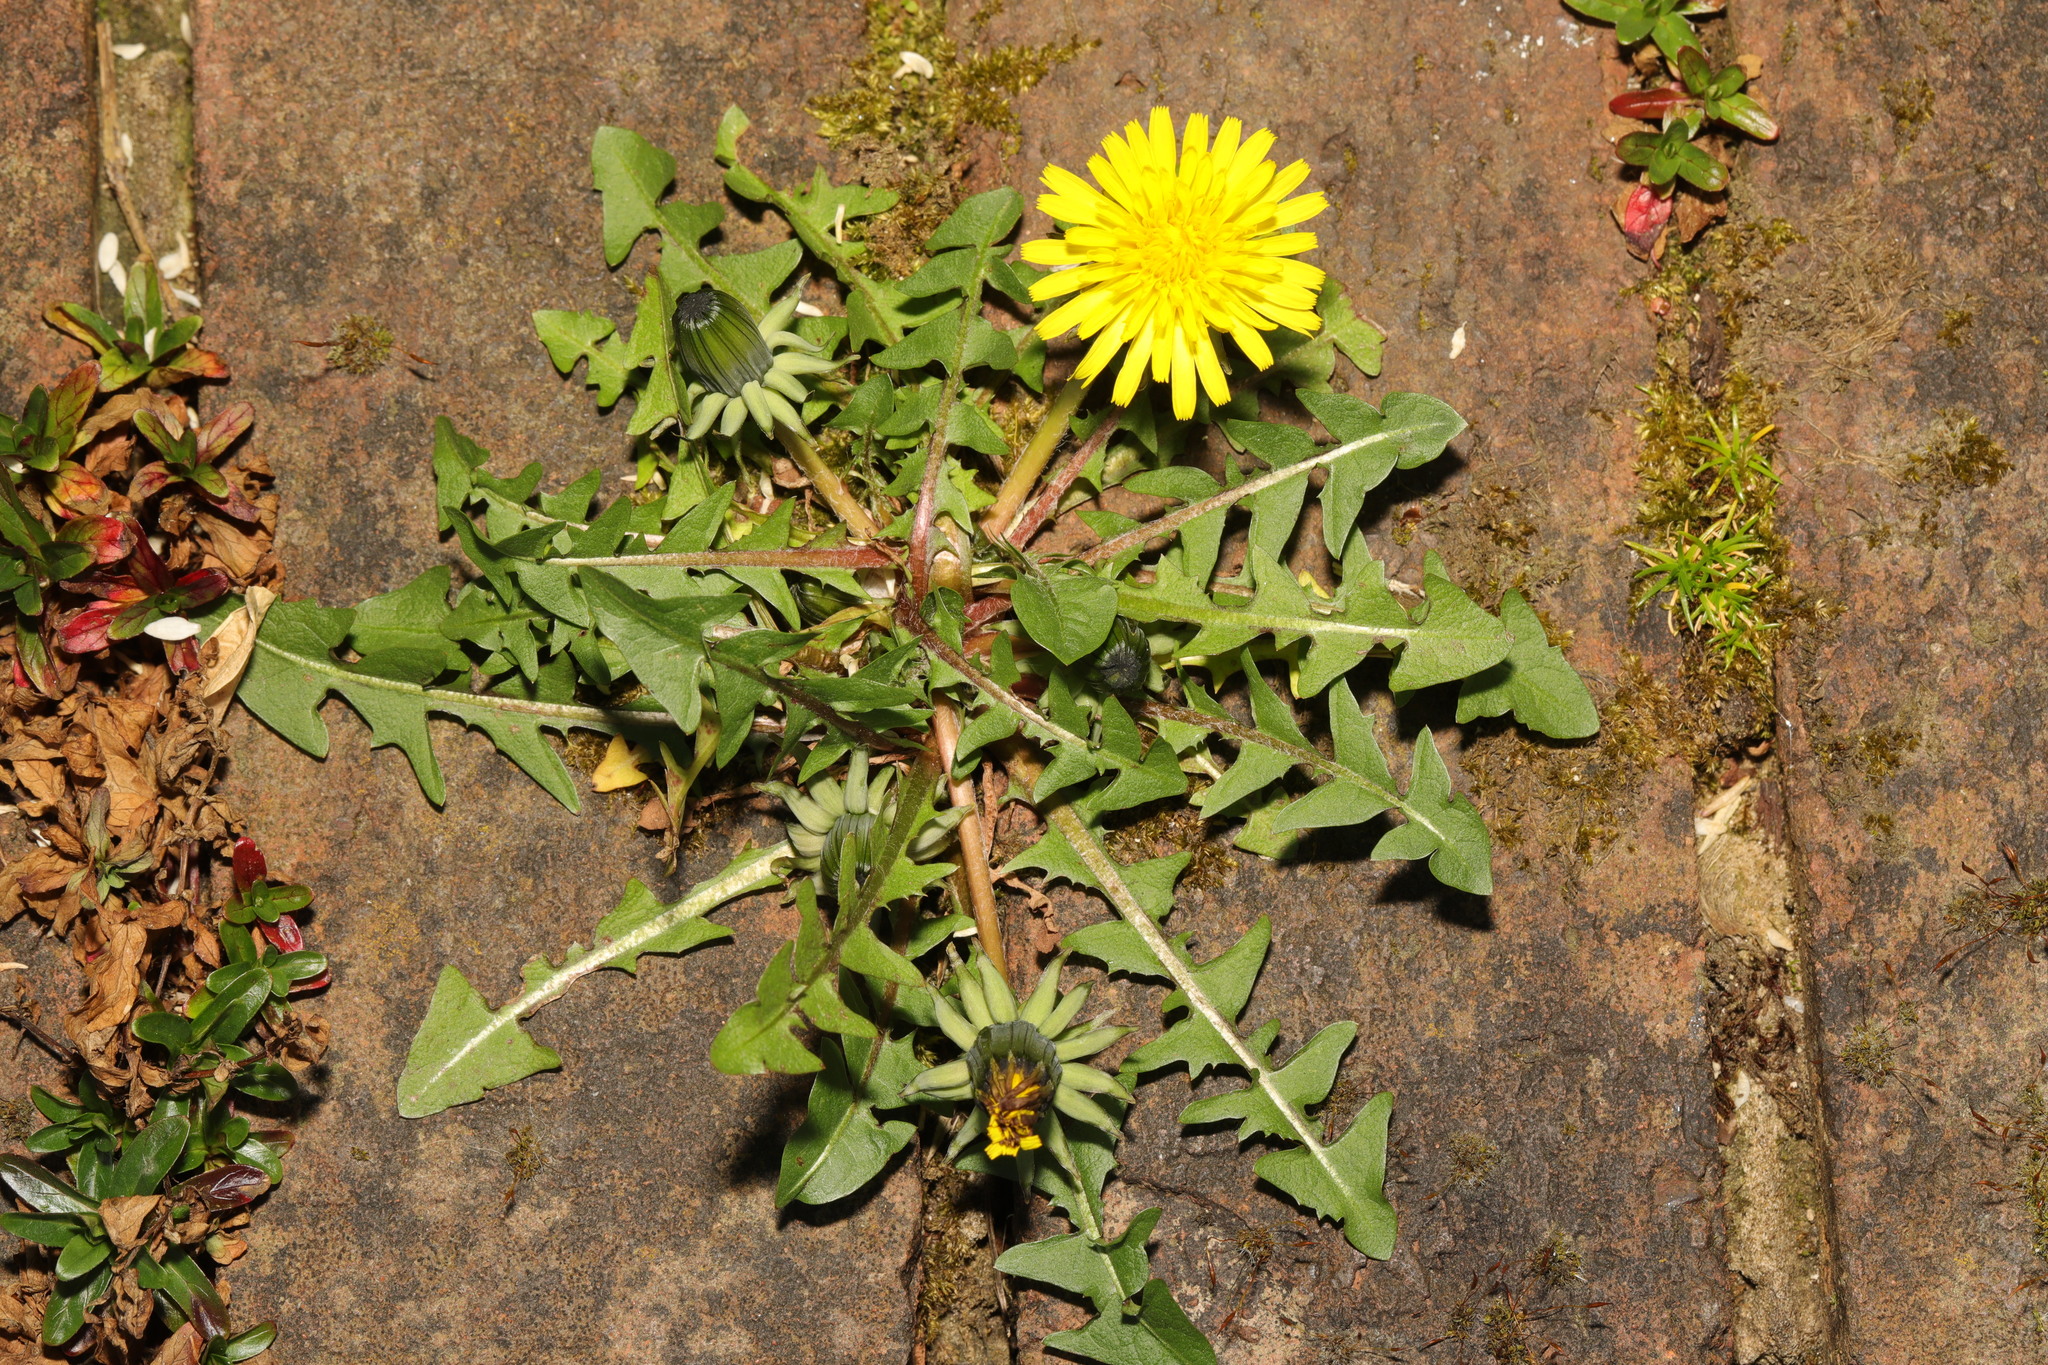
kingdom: Plantae
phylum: Tracheophyta
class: Magnoliopsida
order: Asterales
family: Asteraceae
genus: Taraxacum
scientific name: Taraxacum officinale
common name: Common dandelion
